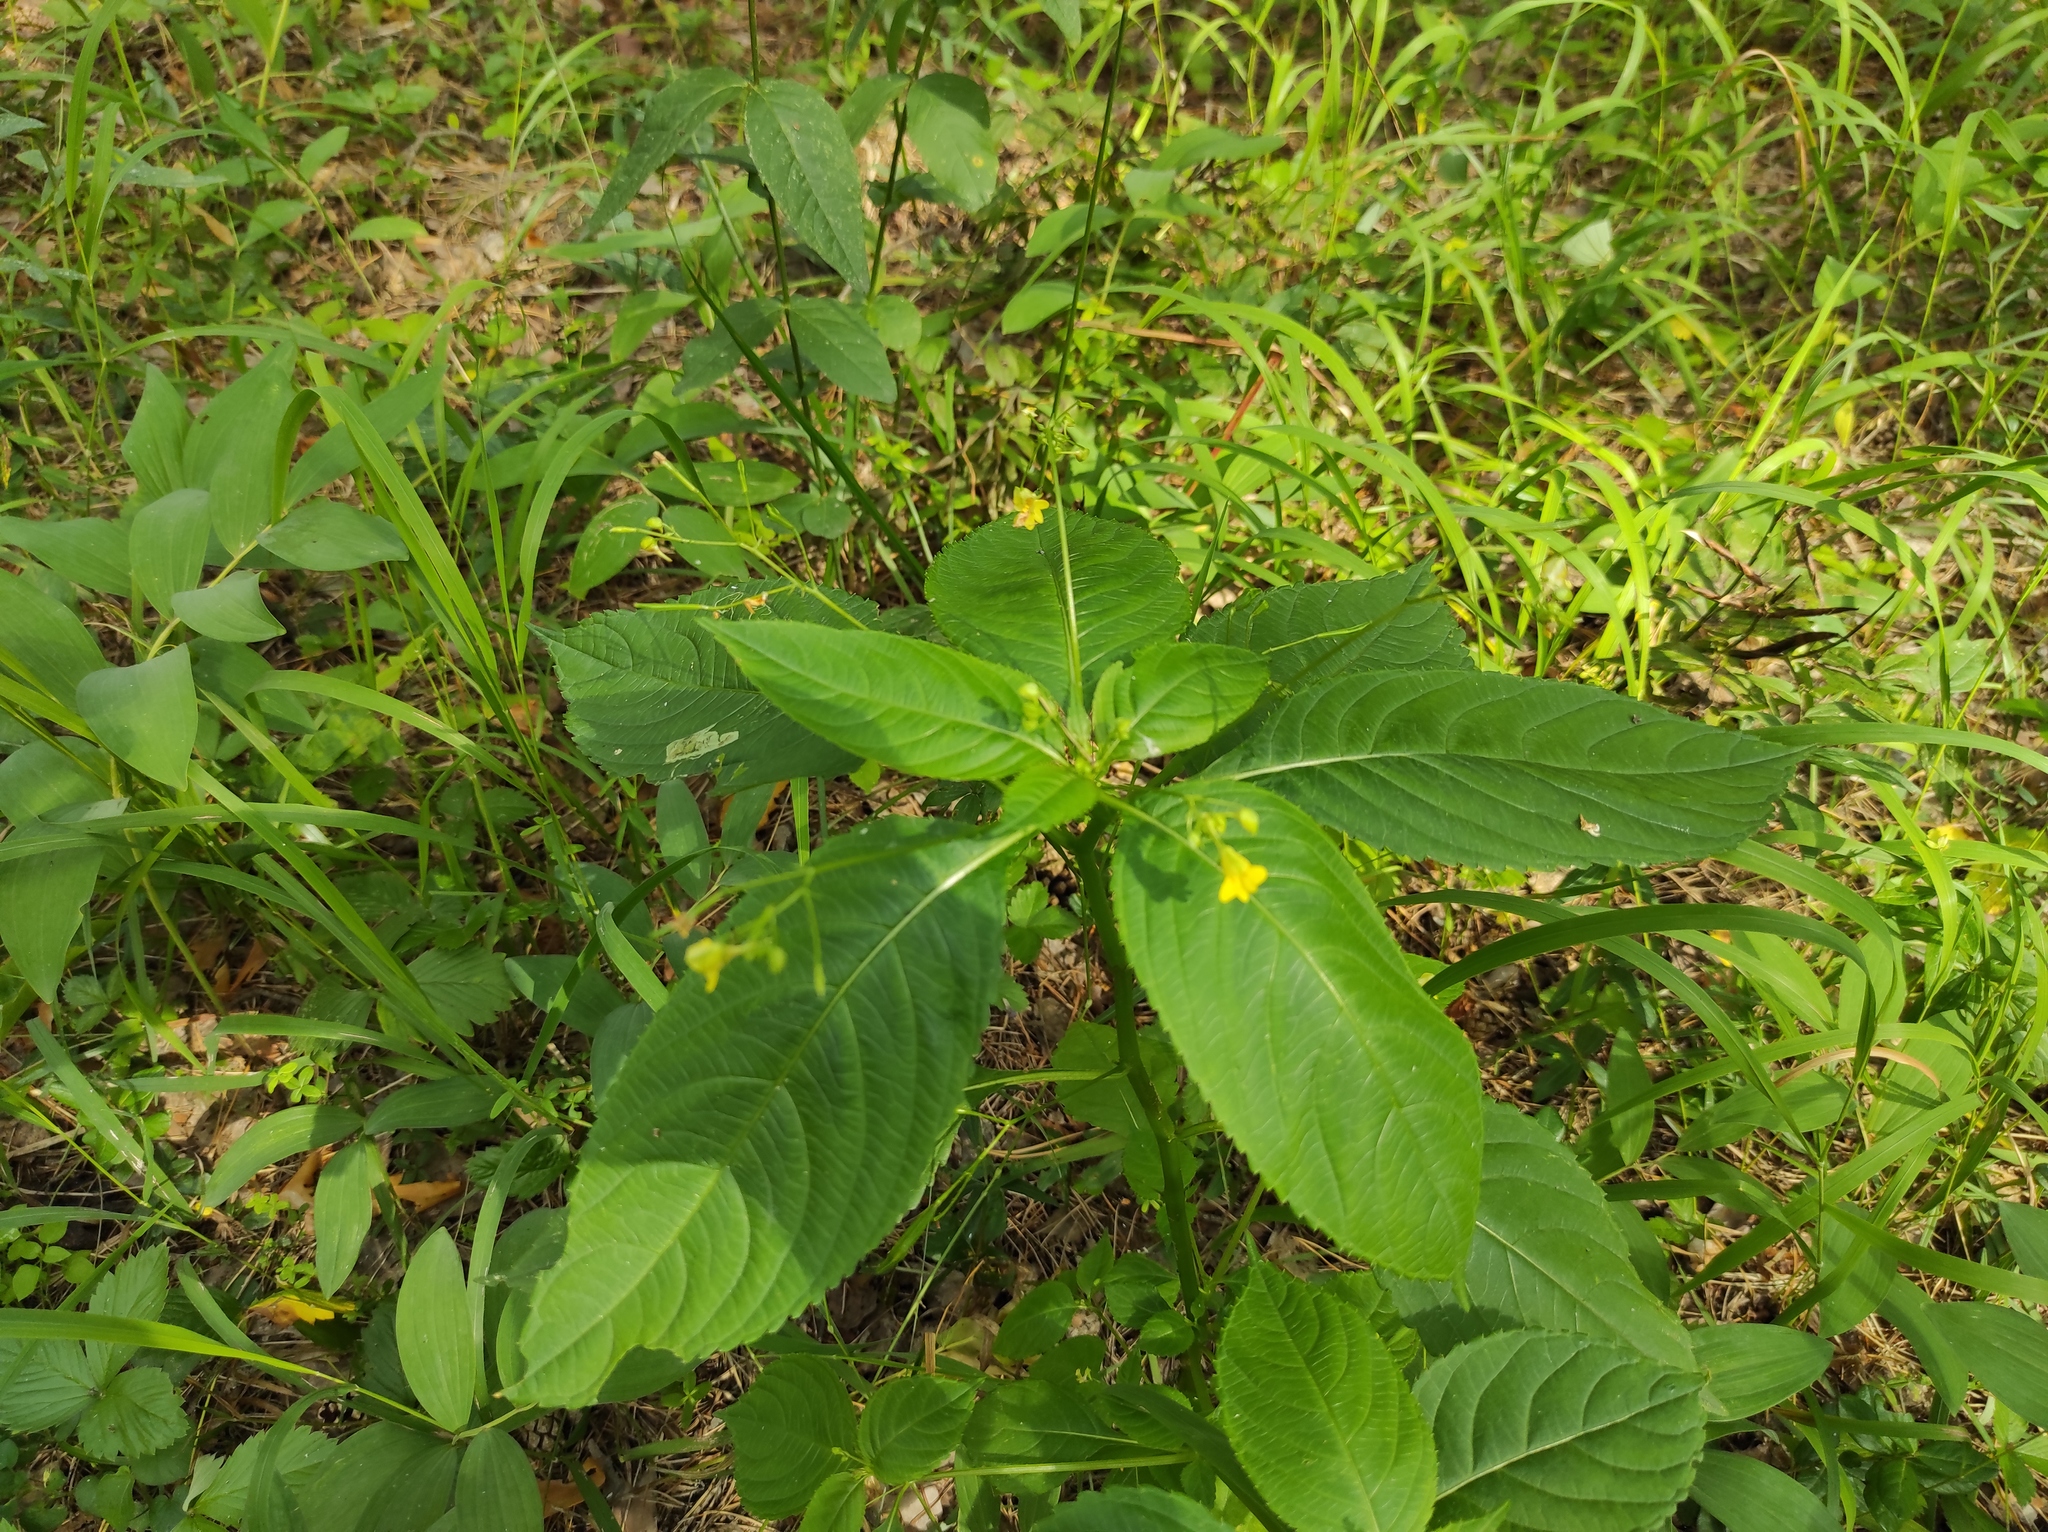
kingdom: Plantae
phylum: Tracheophyta
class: Magnoliopsida
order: Ericales
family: Balsaminaceae
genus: Impatiens
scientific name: Impatiens parviflora
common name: Small balsam
